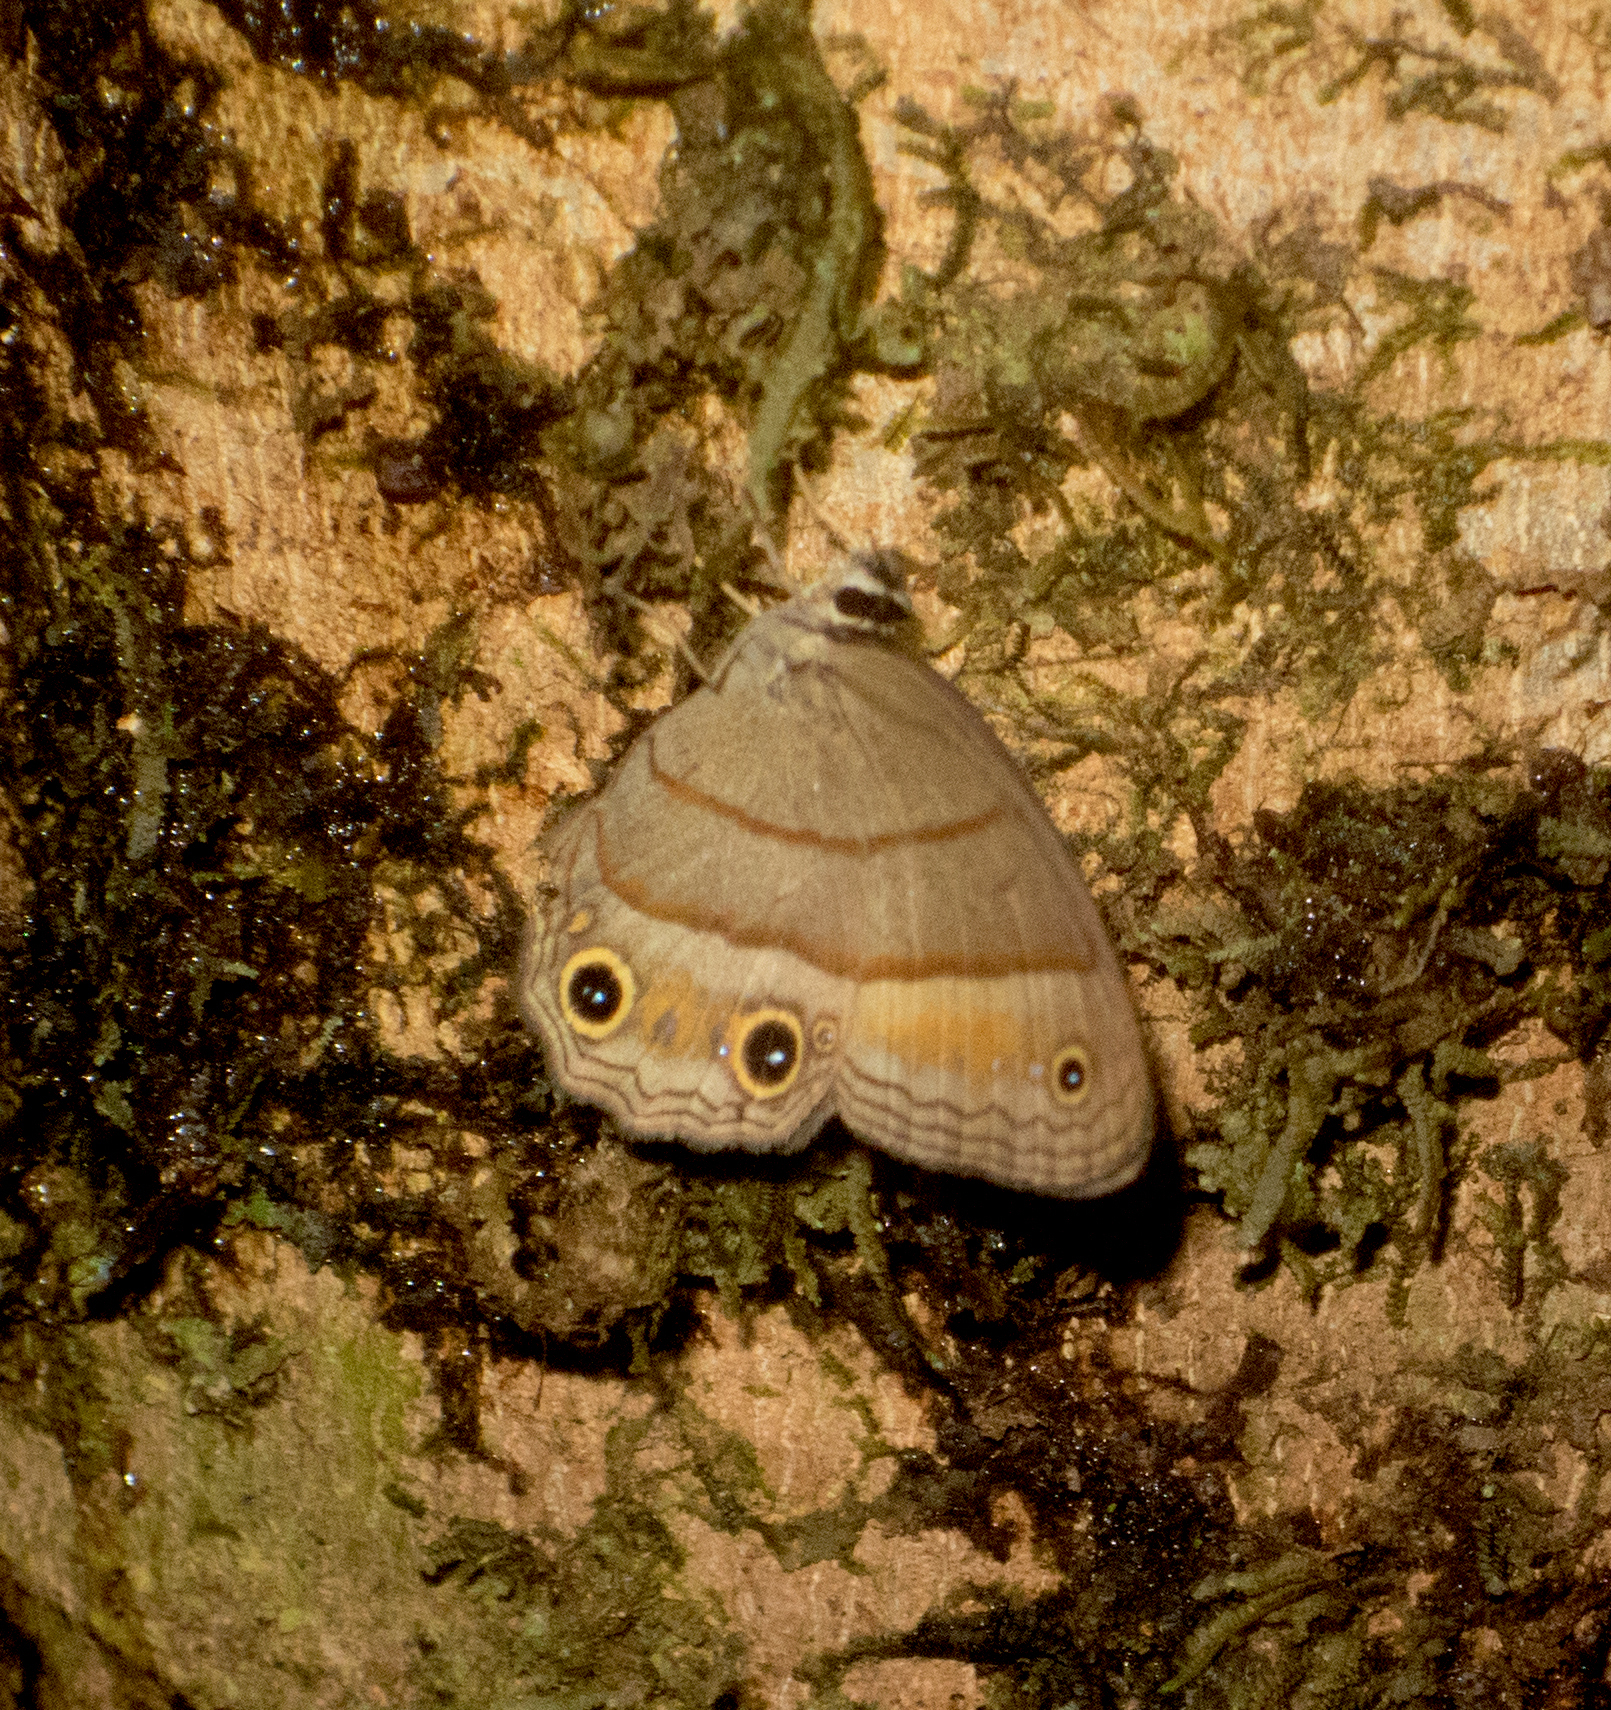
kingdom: Animalia
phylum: Arthropoda
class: Insecta
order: Lepidoptera
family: Nymphalidae
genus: Euptychia
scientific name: Euptychia Cissia pompilia
